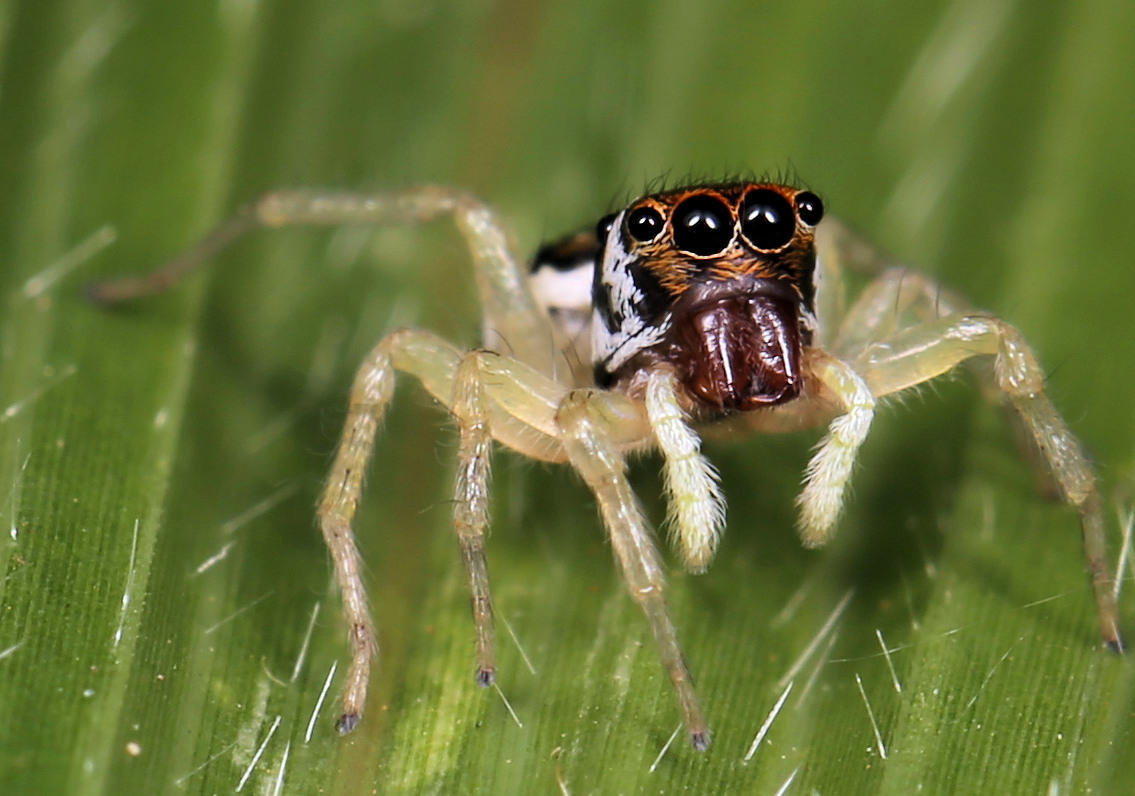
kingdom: Animalia
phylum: Arthropoda
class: Arachnida
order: Araneae
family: Salticidae
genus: Phintella
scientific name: Phintella aequipes
